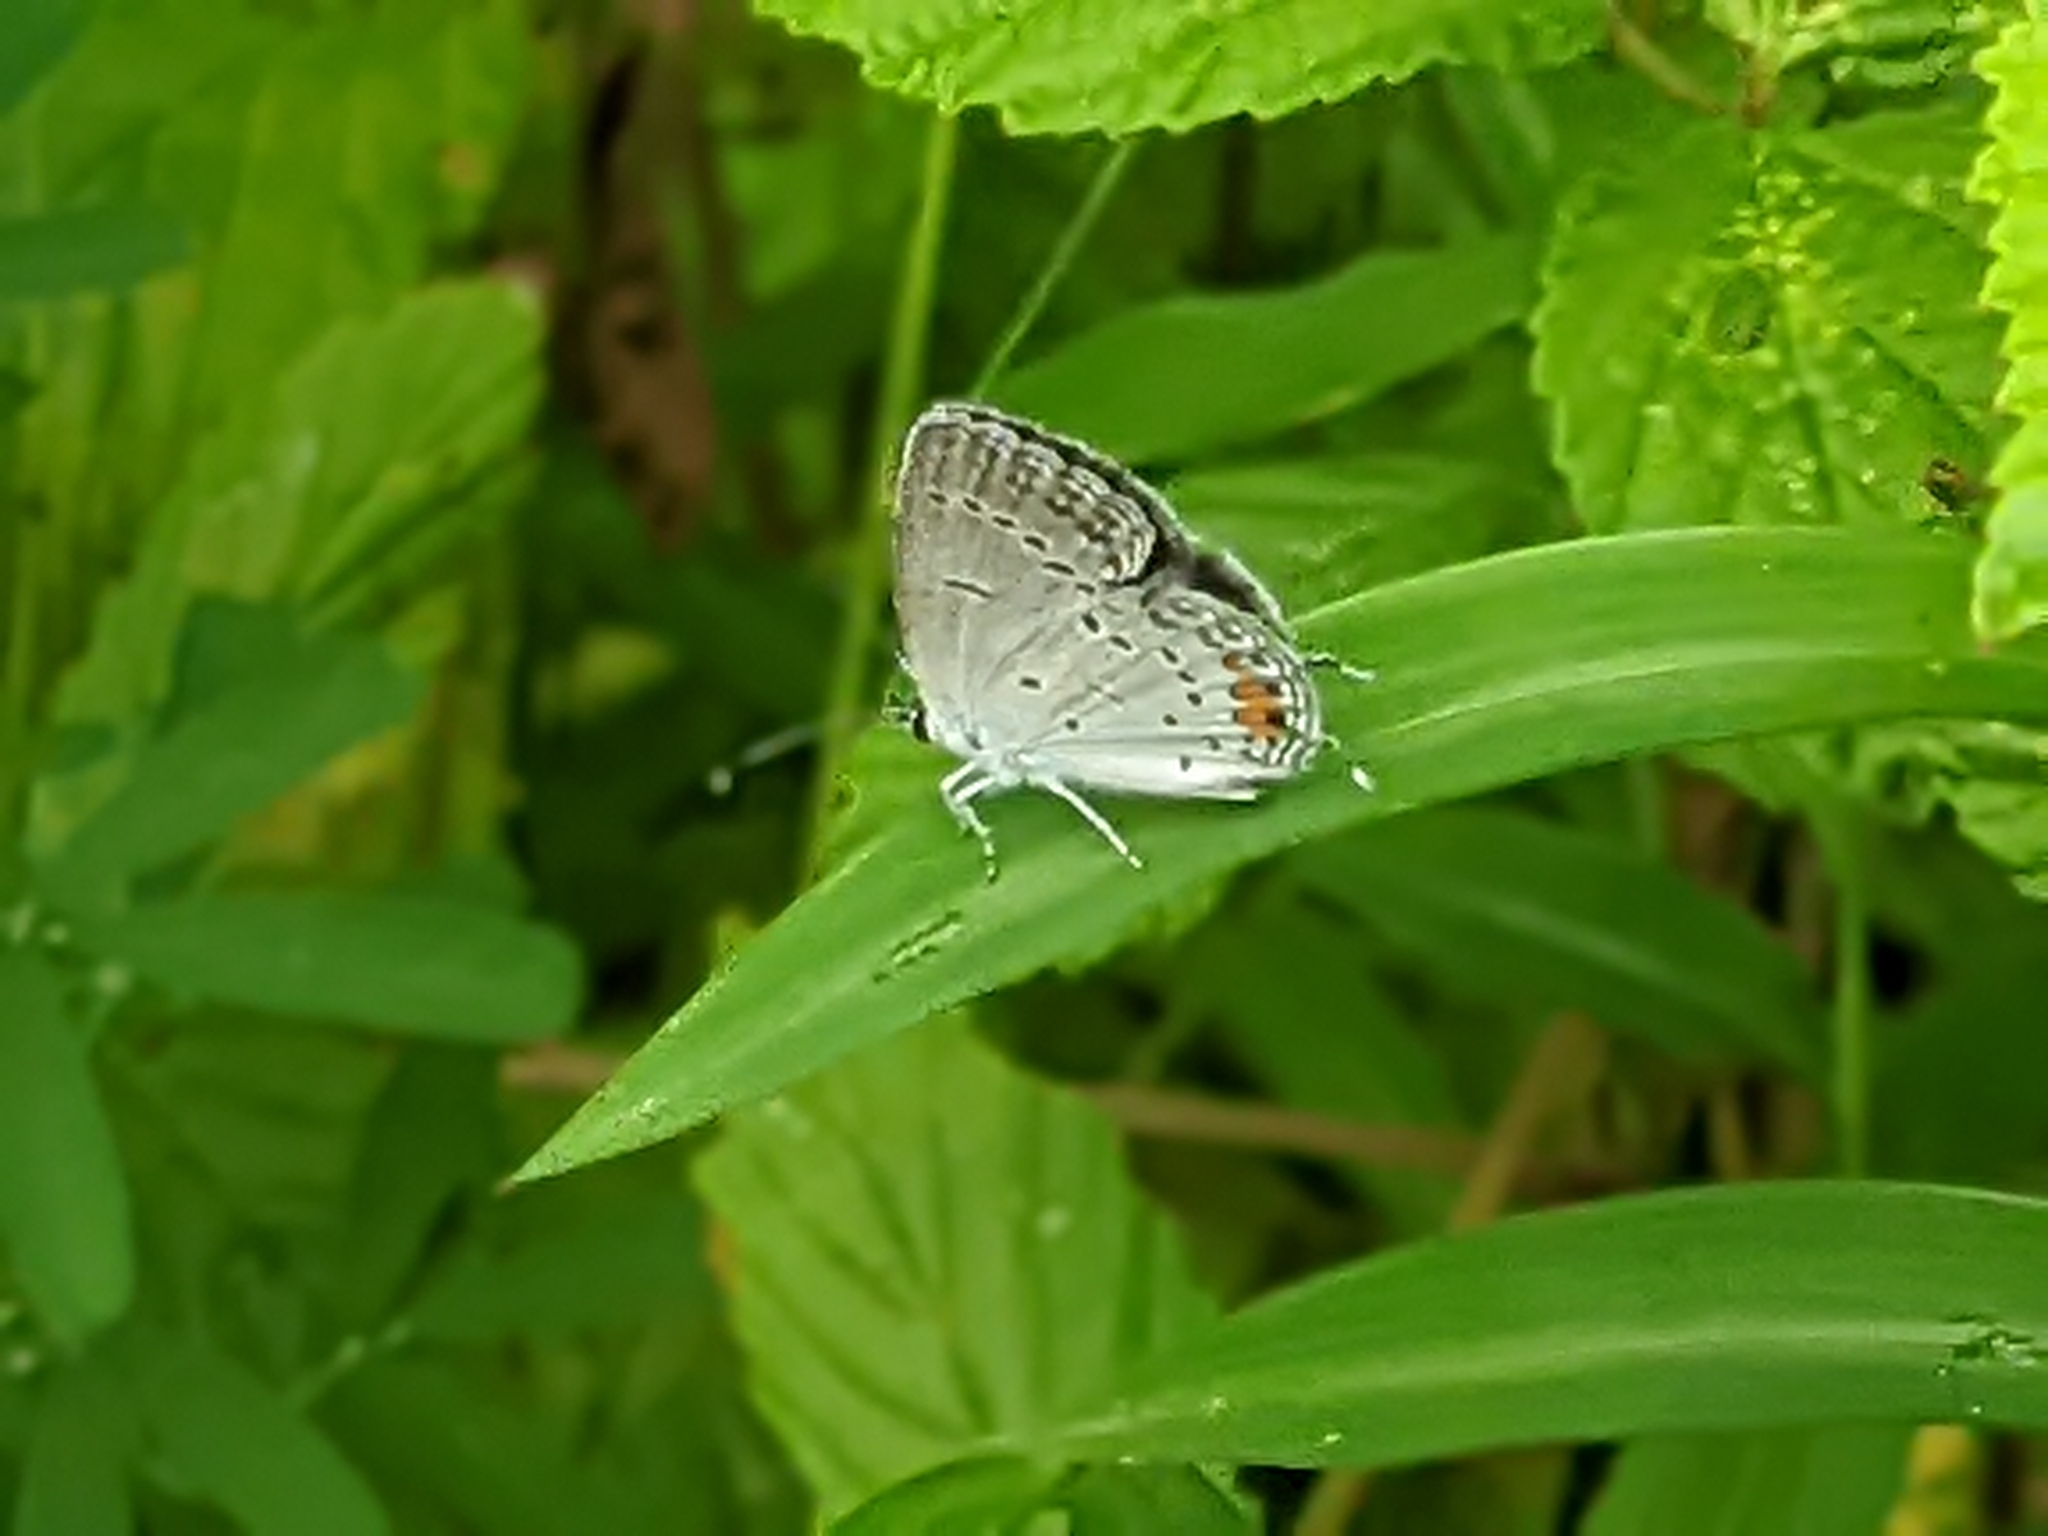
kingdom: Animalia
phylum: Arthropoda
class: Insecta
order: Lepidoptera
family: Lycaenidae
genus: Elkalyce
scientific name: Elkalyce comyntas
